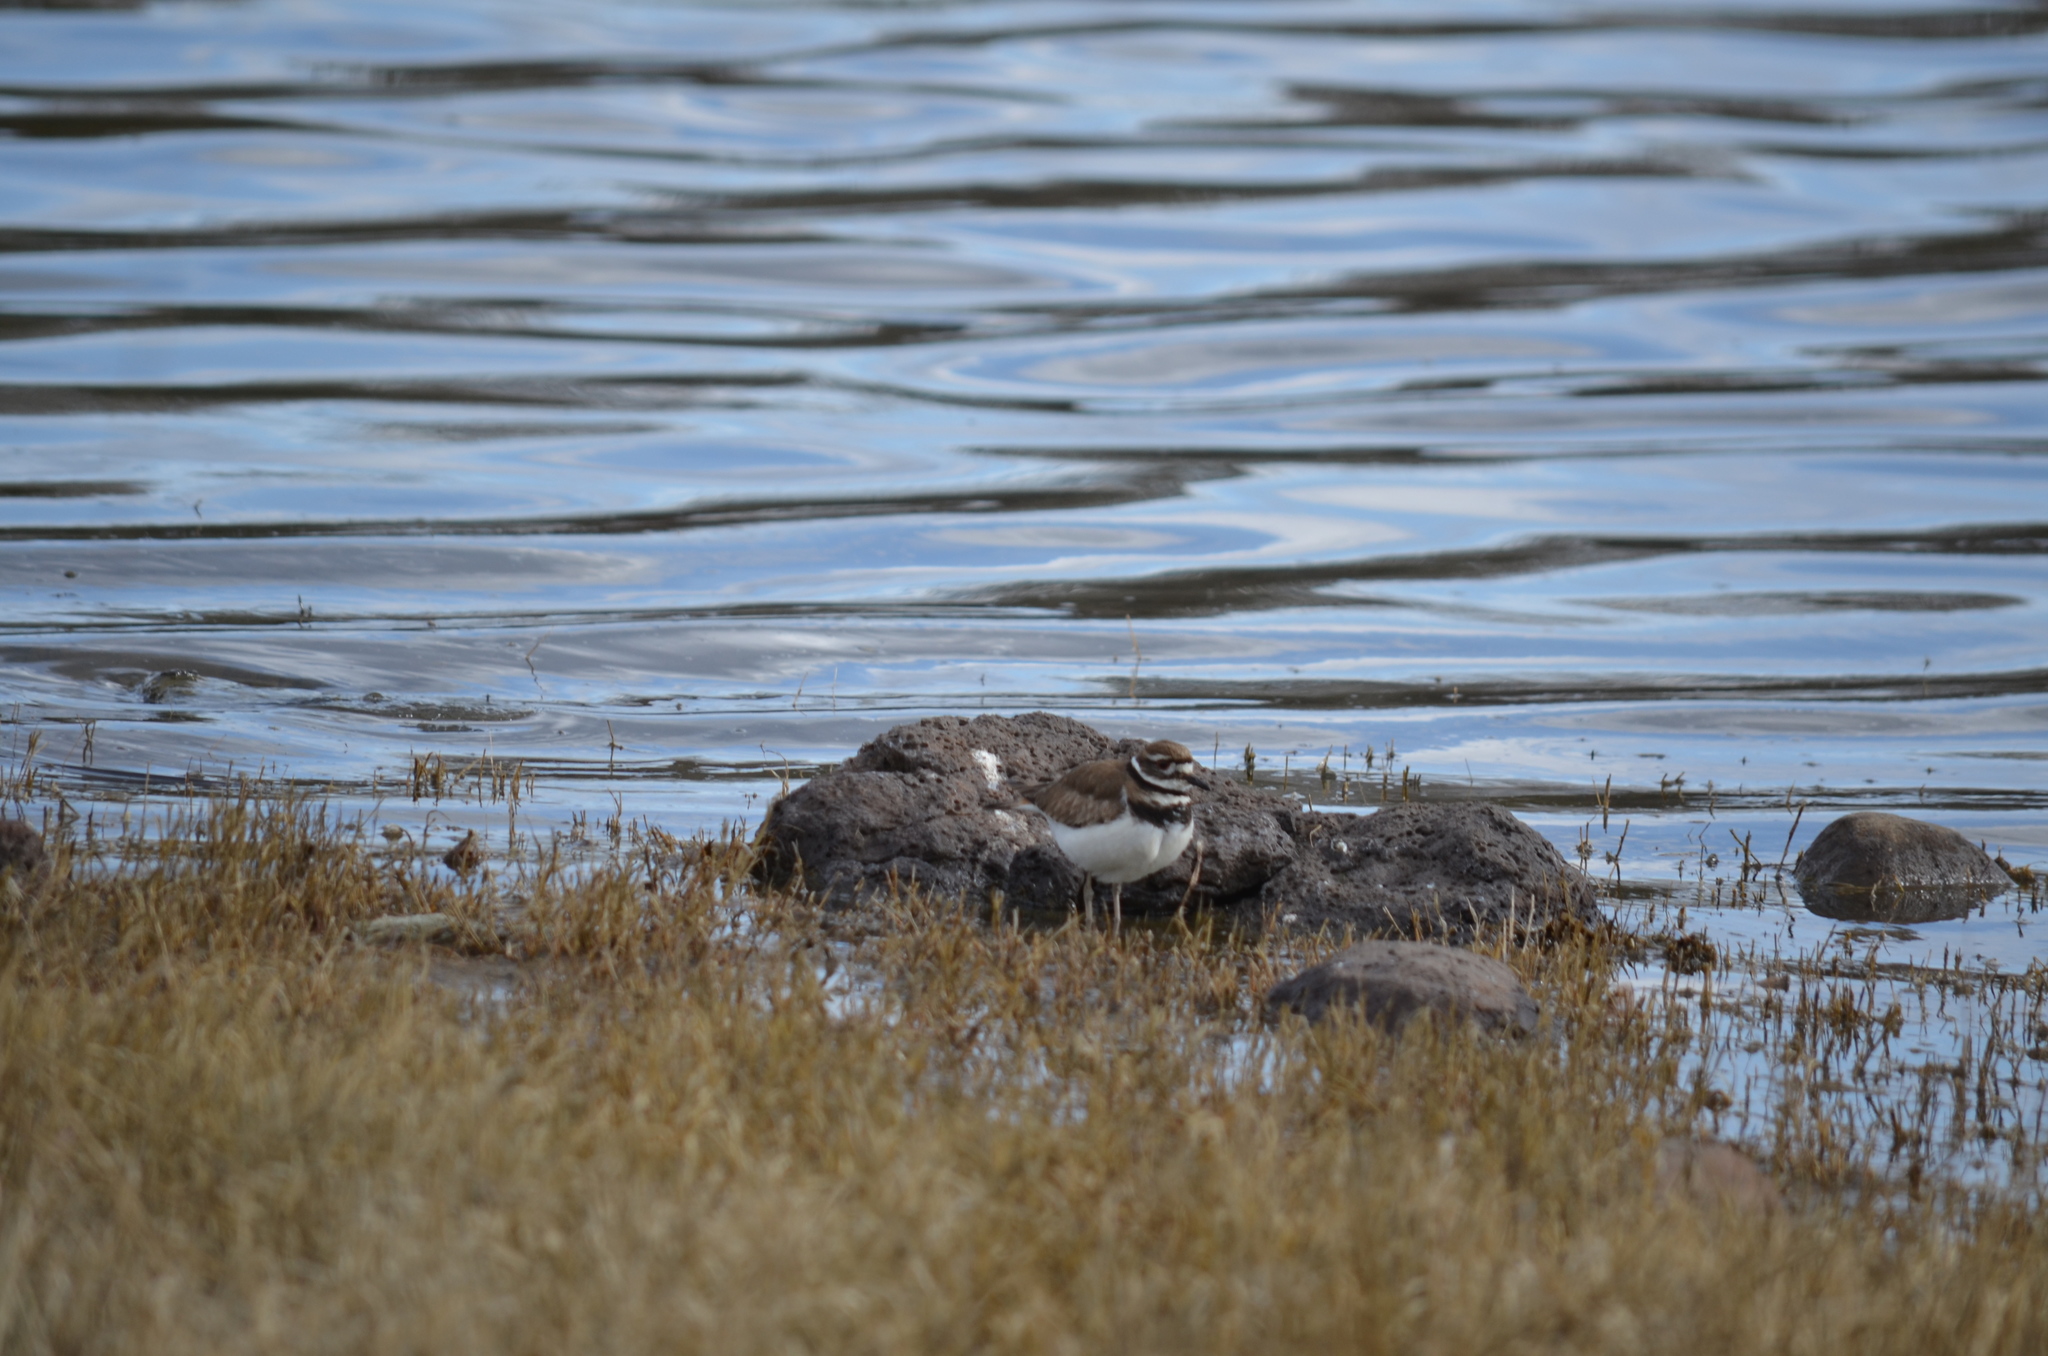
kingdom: Animalia
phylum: Chordata
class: Aves
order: Charadriiformes
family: Charadriidae
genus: Charadrius
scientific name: Charadrius vociferus
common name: Killdeer
